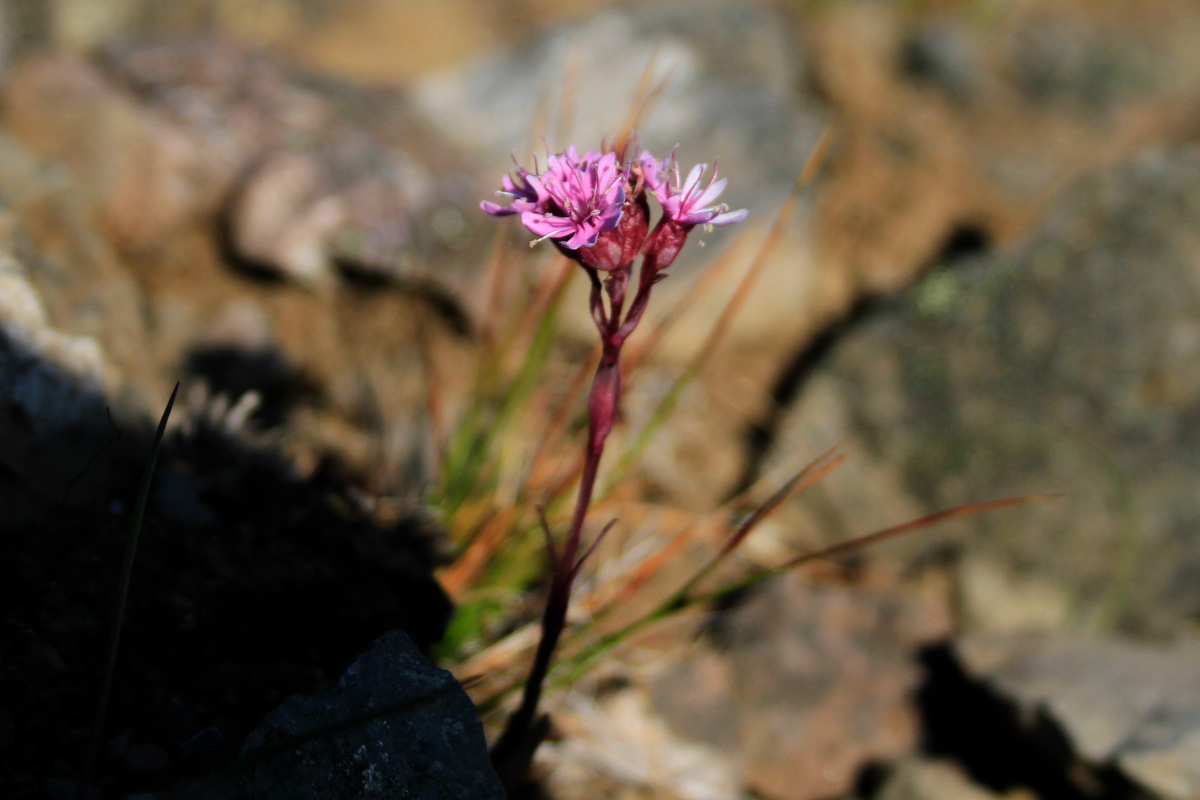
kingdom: Plantae
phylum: Tracheophyta
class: Magnoliopsida
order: Caryophyllales
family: Caryophyllaceae
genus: Viscaria
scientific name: Viscaria alpina
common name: Alpine campion
